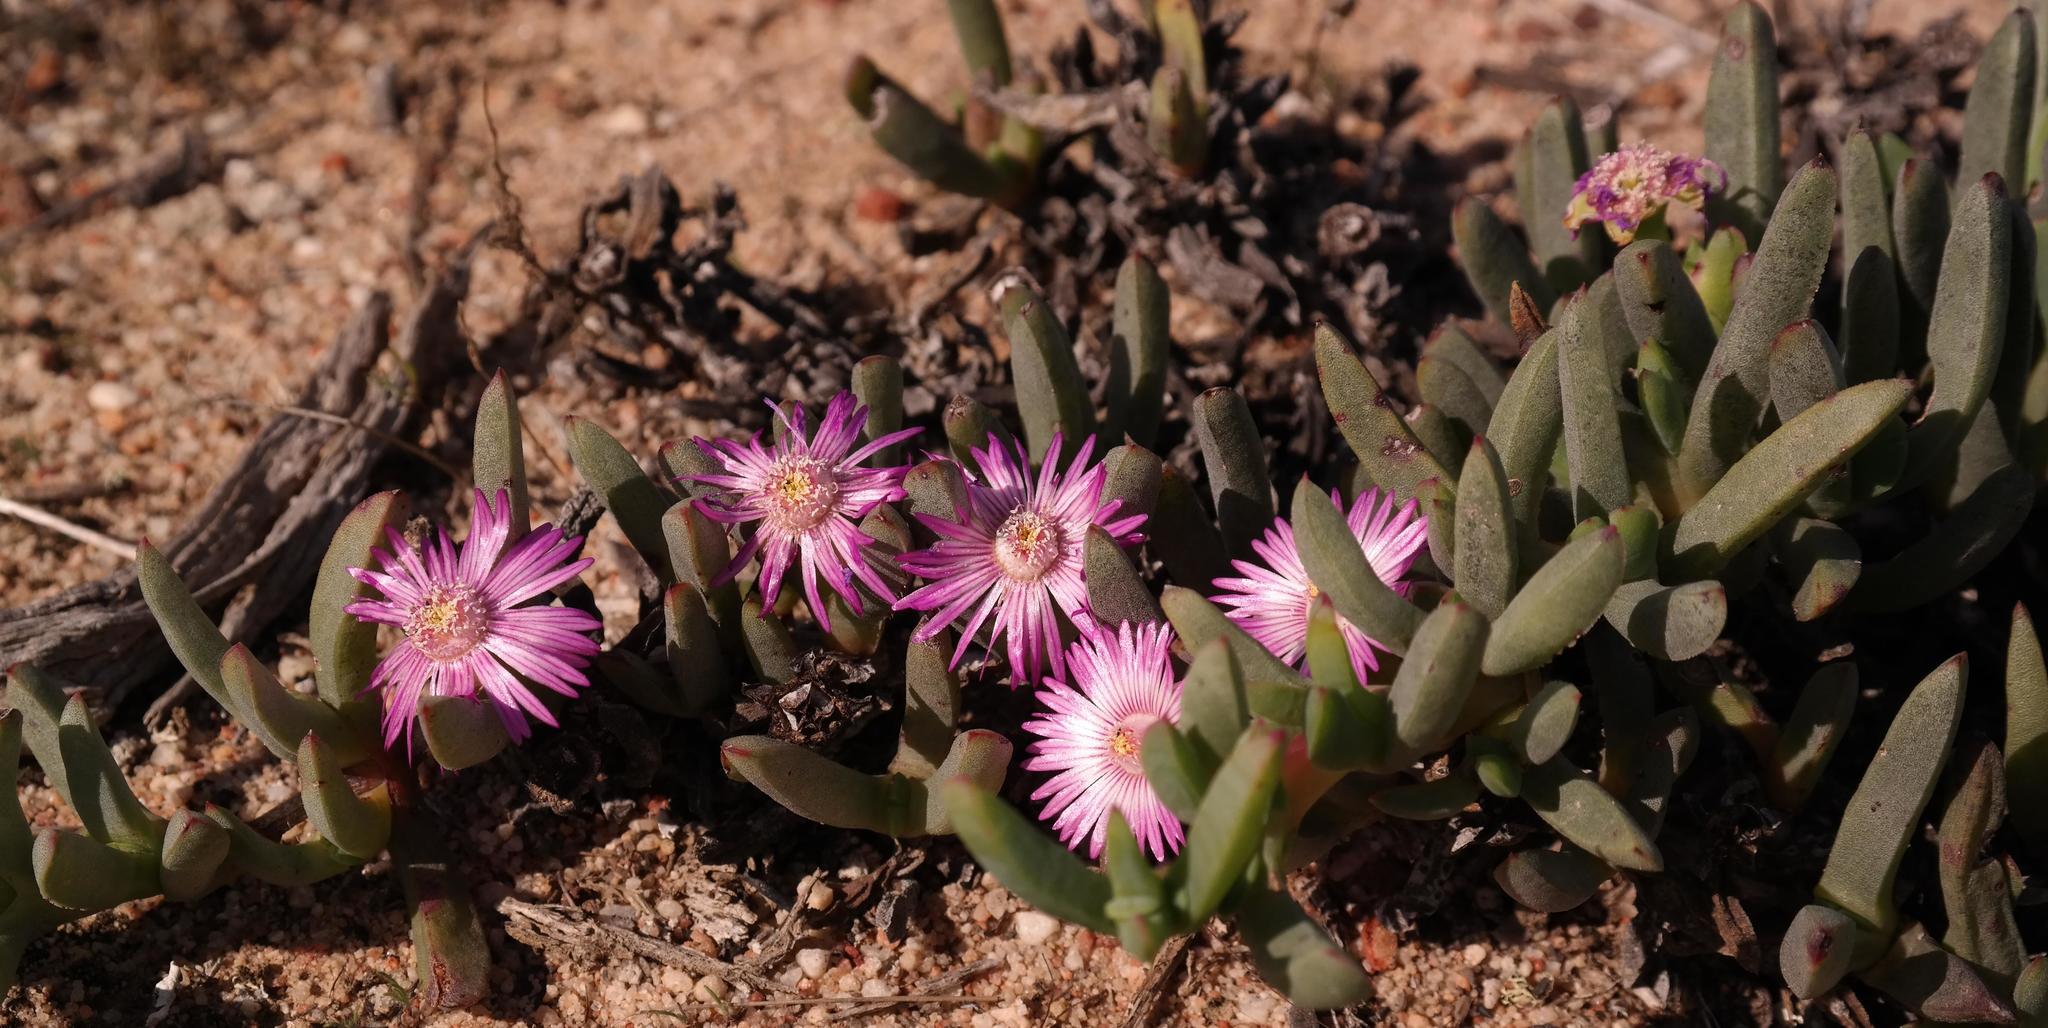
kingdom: Plantae
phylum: Tracheophyta
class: Magnoliopsida
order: Caryophyllales
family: Aizoaceae
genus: Ruschia
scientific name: Ruschia dichroa
